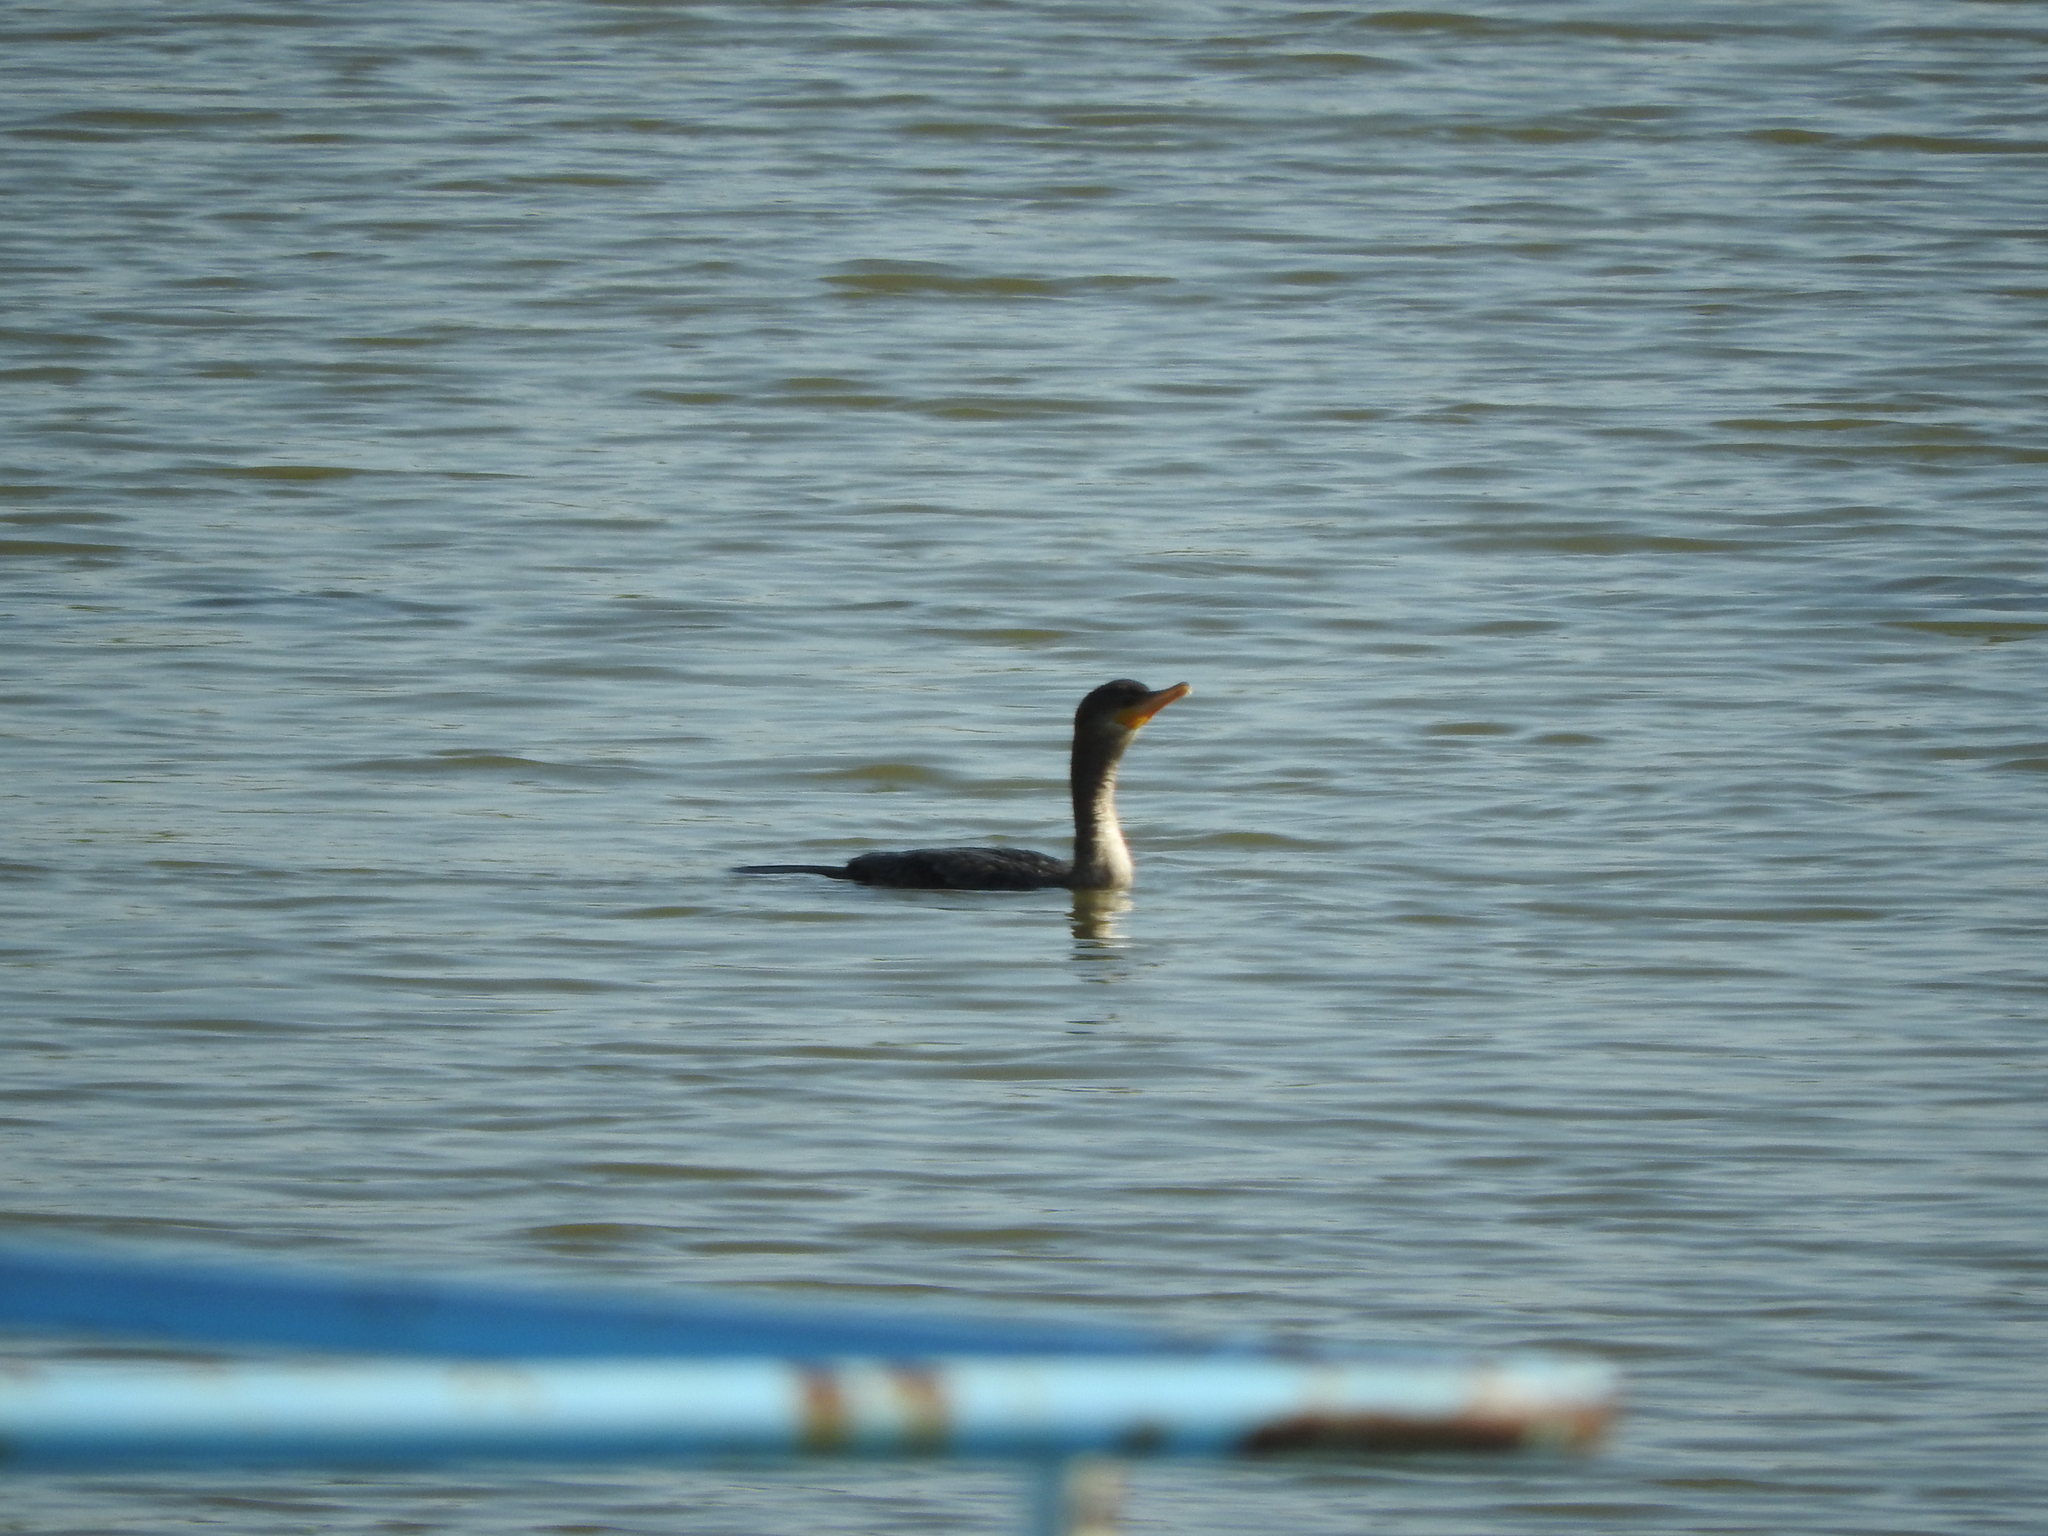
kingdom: Animalia
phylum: Chordata
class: Aves
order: Suliformes
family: Phalacrocoracidae
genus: Phalacrocorax
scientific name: Phalacrocorax brasilianus
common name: Neotropic cormorant
